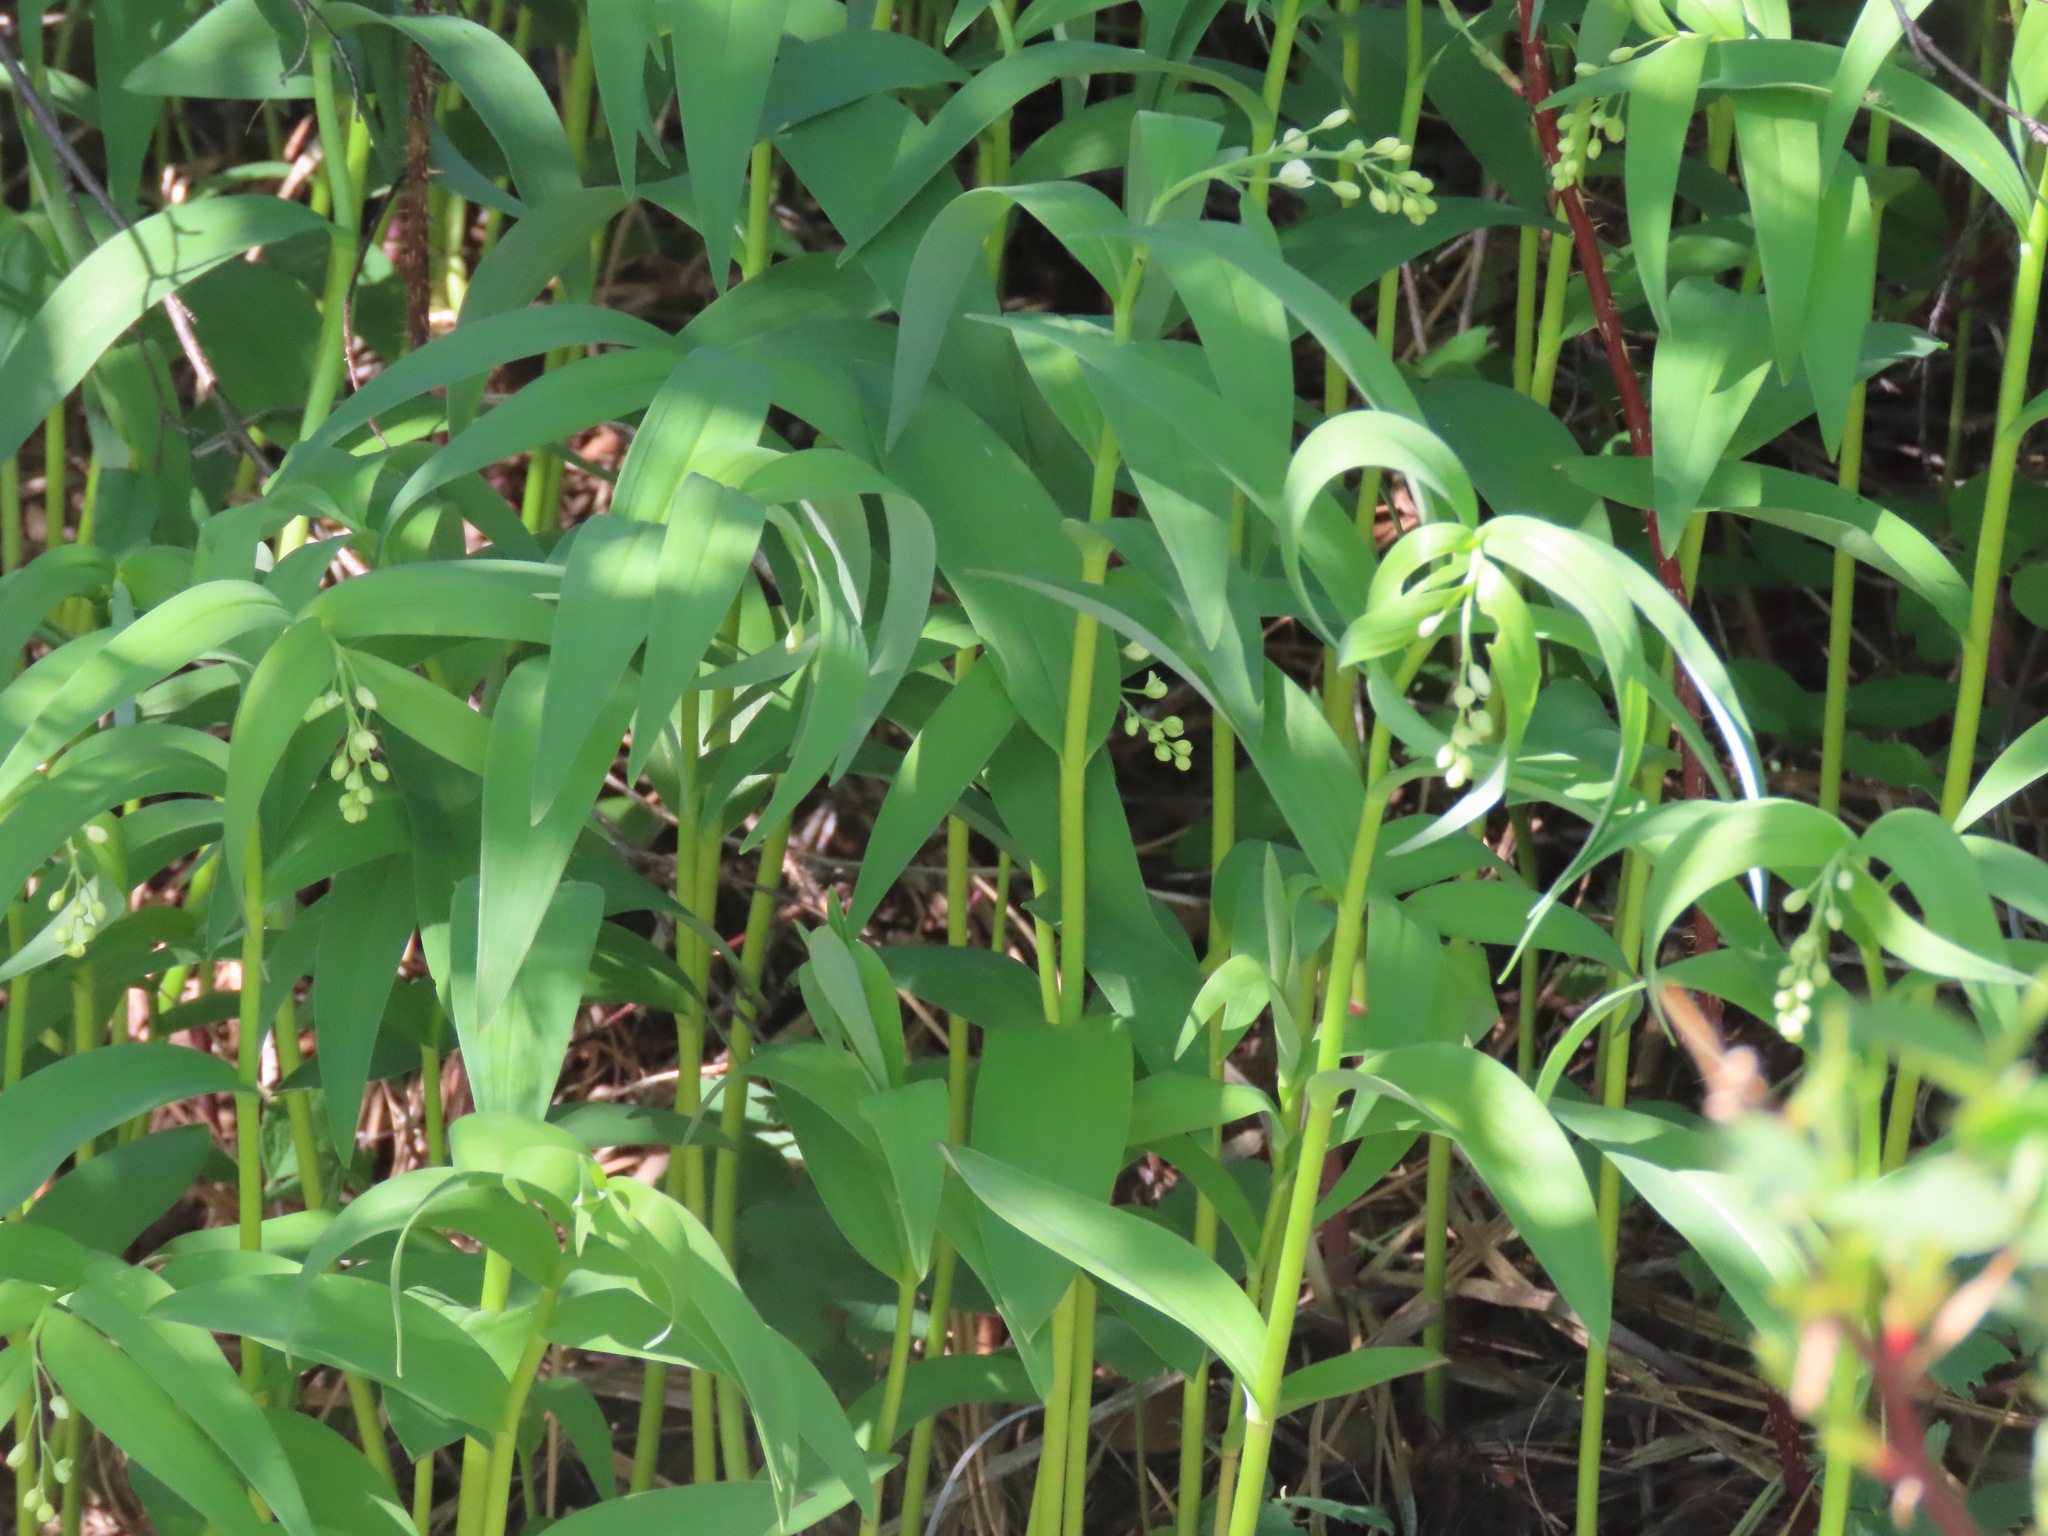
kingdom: Plantae
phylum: Tracheophyta
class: Liliopsida
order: Asparagales
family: Asparagaceae
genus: Maianthemum
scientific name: Maianthemum stellatum
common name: Little false solomon's seal
